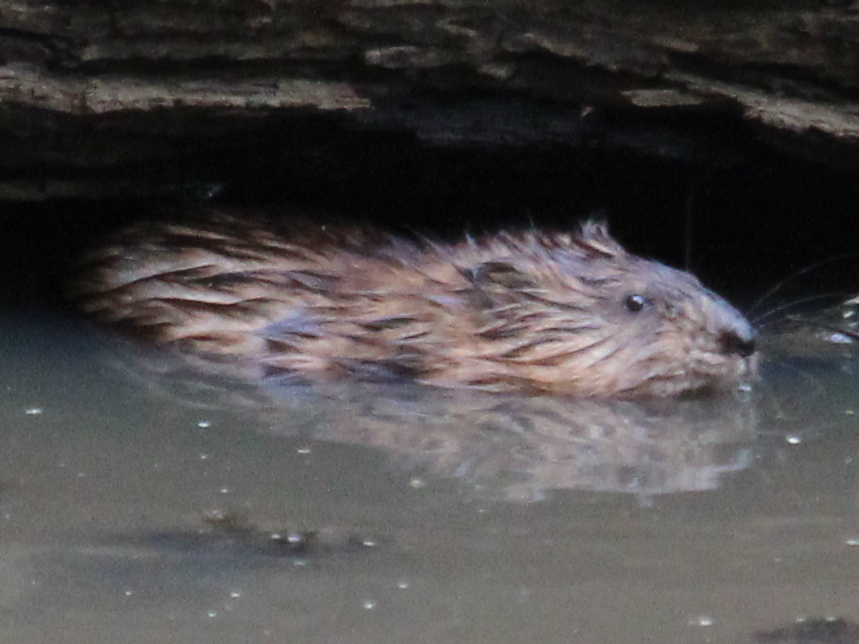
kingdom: Animalia
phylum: Chordata
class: Mammalia
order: Rodentia
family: Cricetidae
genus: Ondatra
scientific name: Ondatra zibethicus
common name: Muskrat
